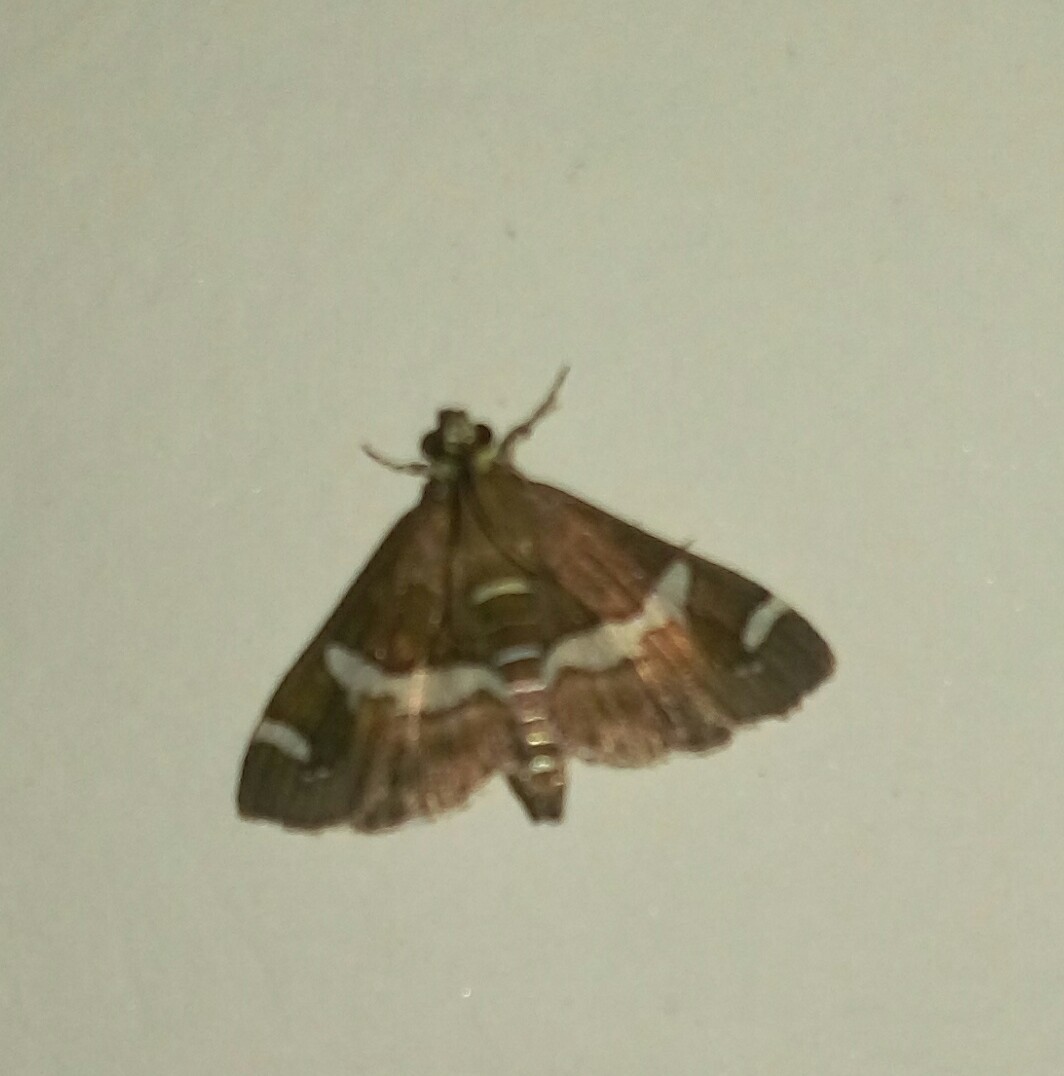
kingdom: Animalia
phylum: Arthropoda
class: Insecta
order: Lepidoptera
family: Crambidae
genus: Spoladea
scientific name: Spoladea recurvalis
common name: Beet webworm moth
